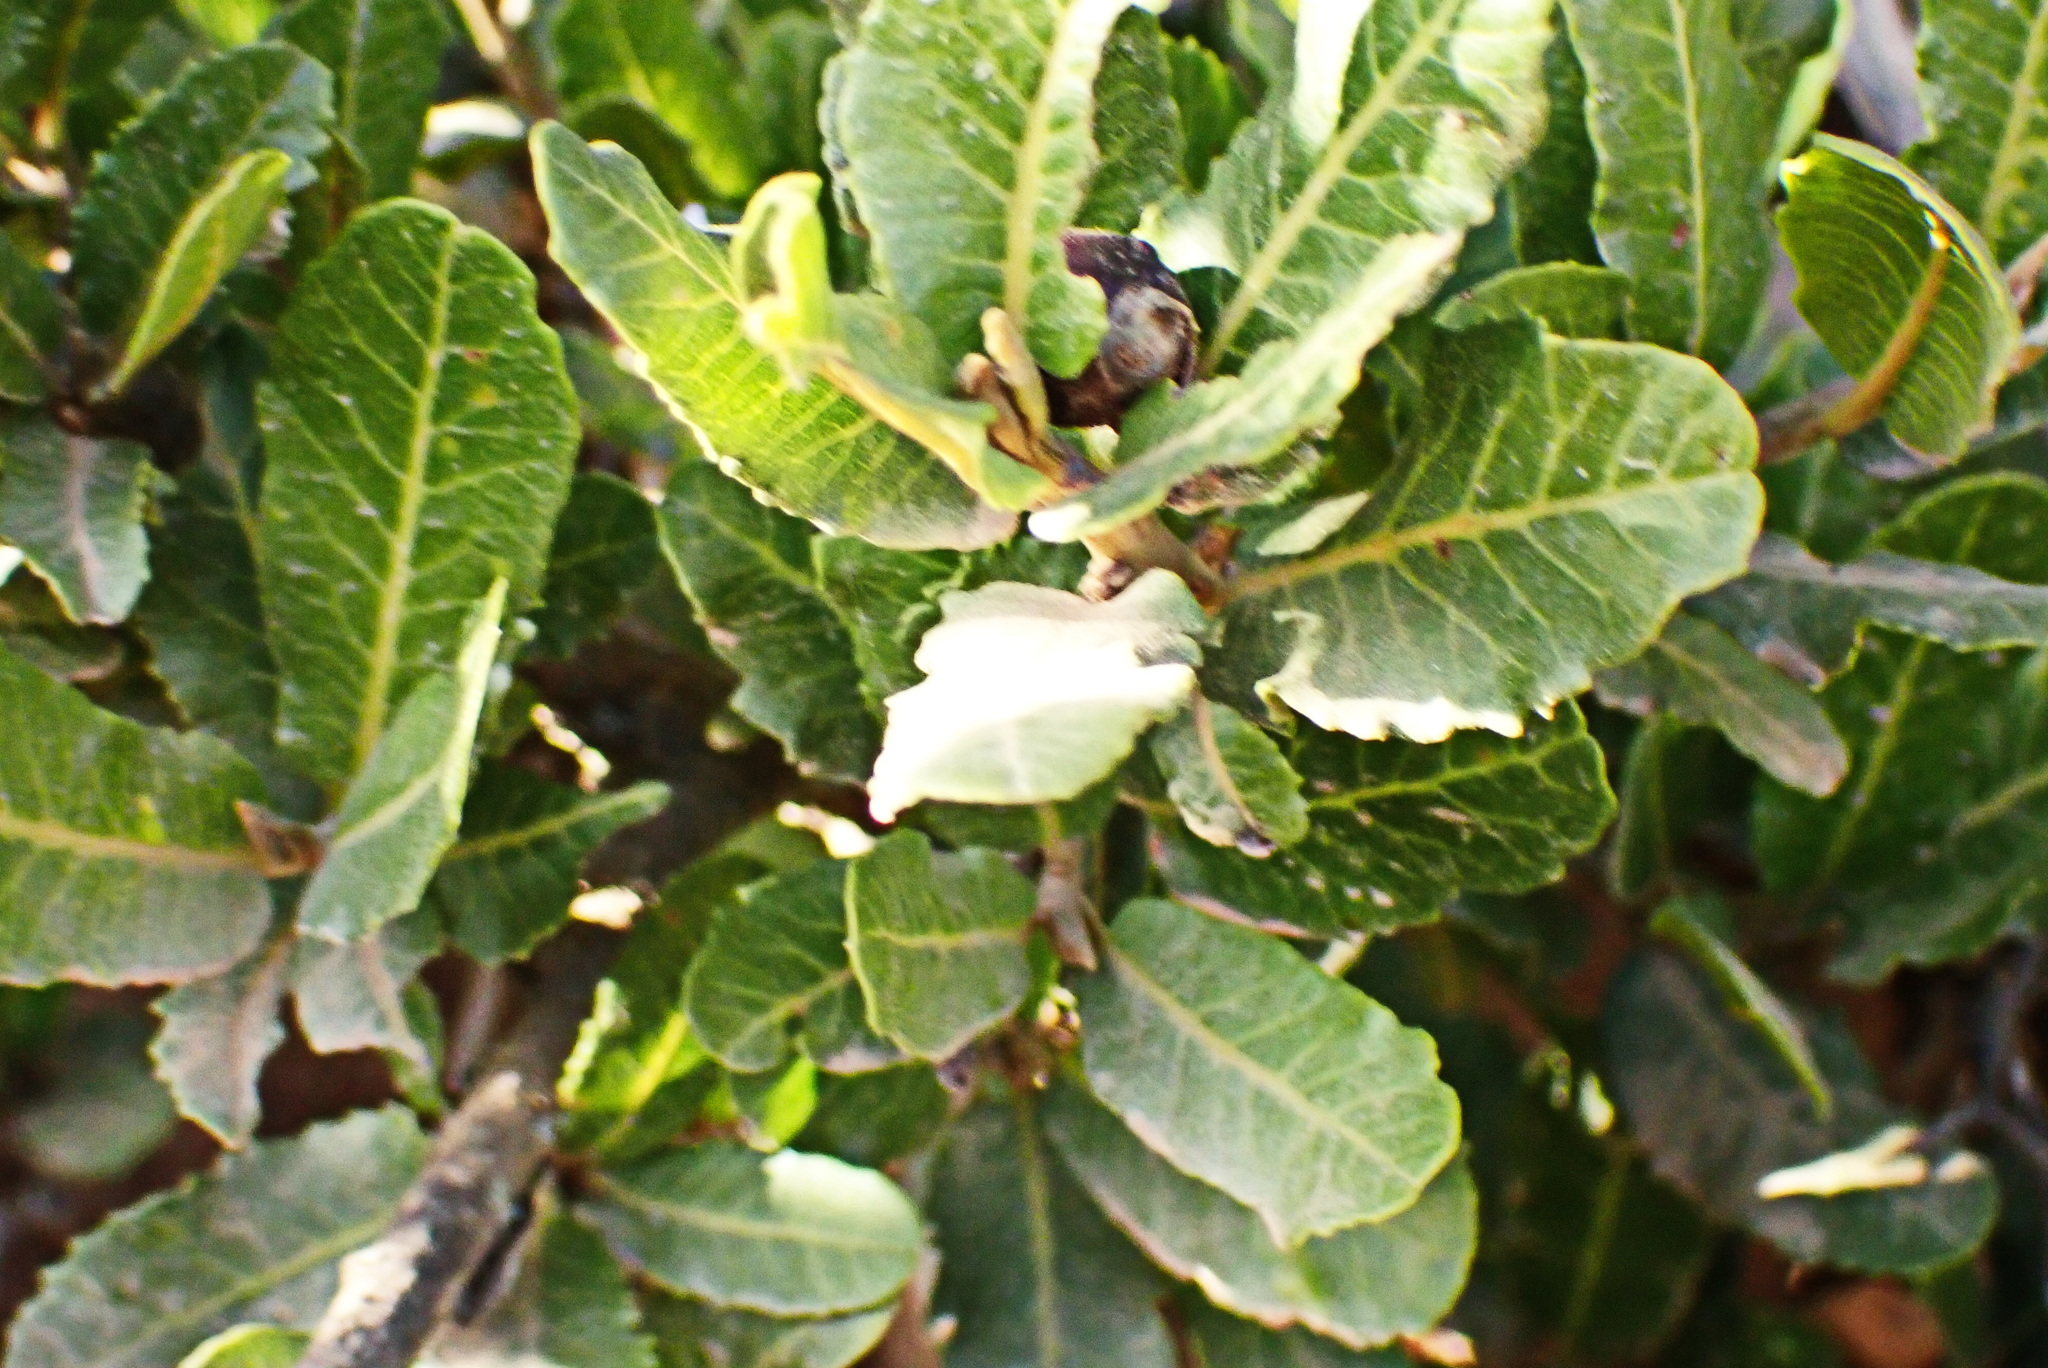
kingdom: Plantae
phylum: Tracheophyta
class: Magnoliopsida
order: Sapindales
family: Sapindaceae
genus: Pappea
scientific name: Pappea capensis
